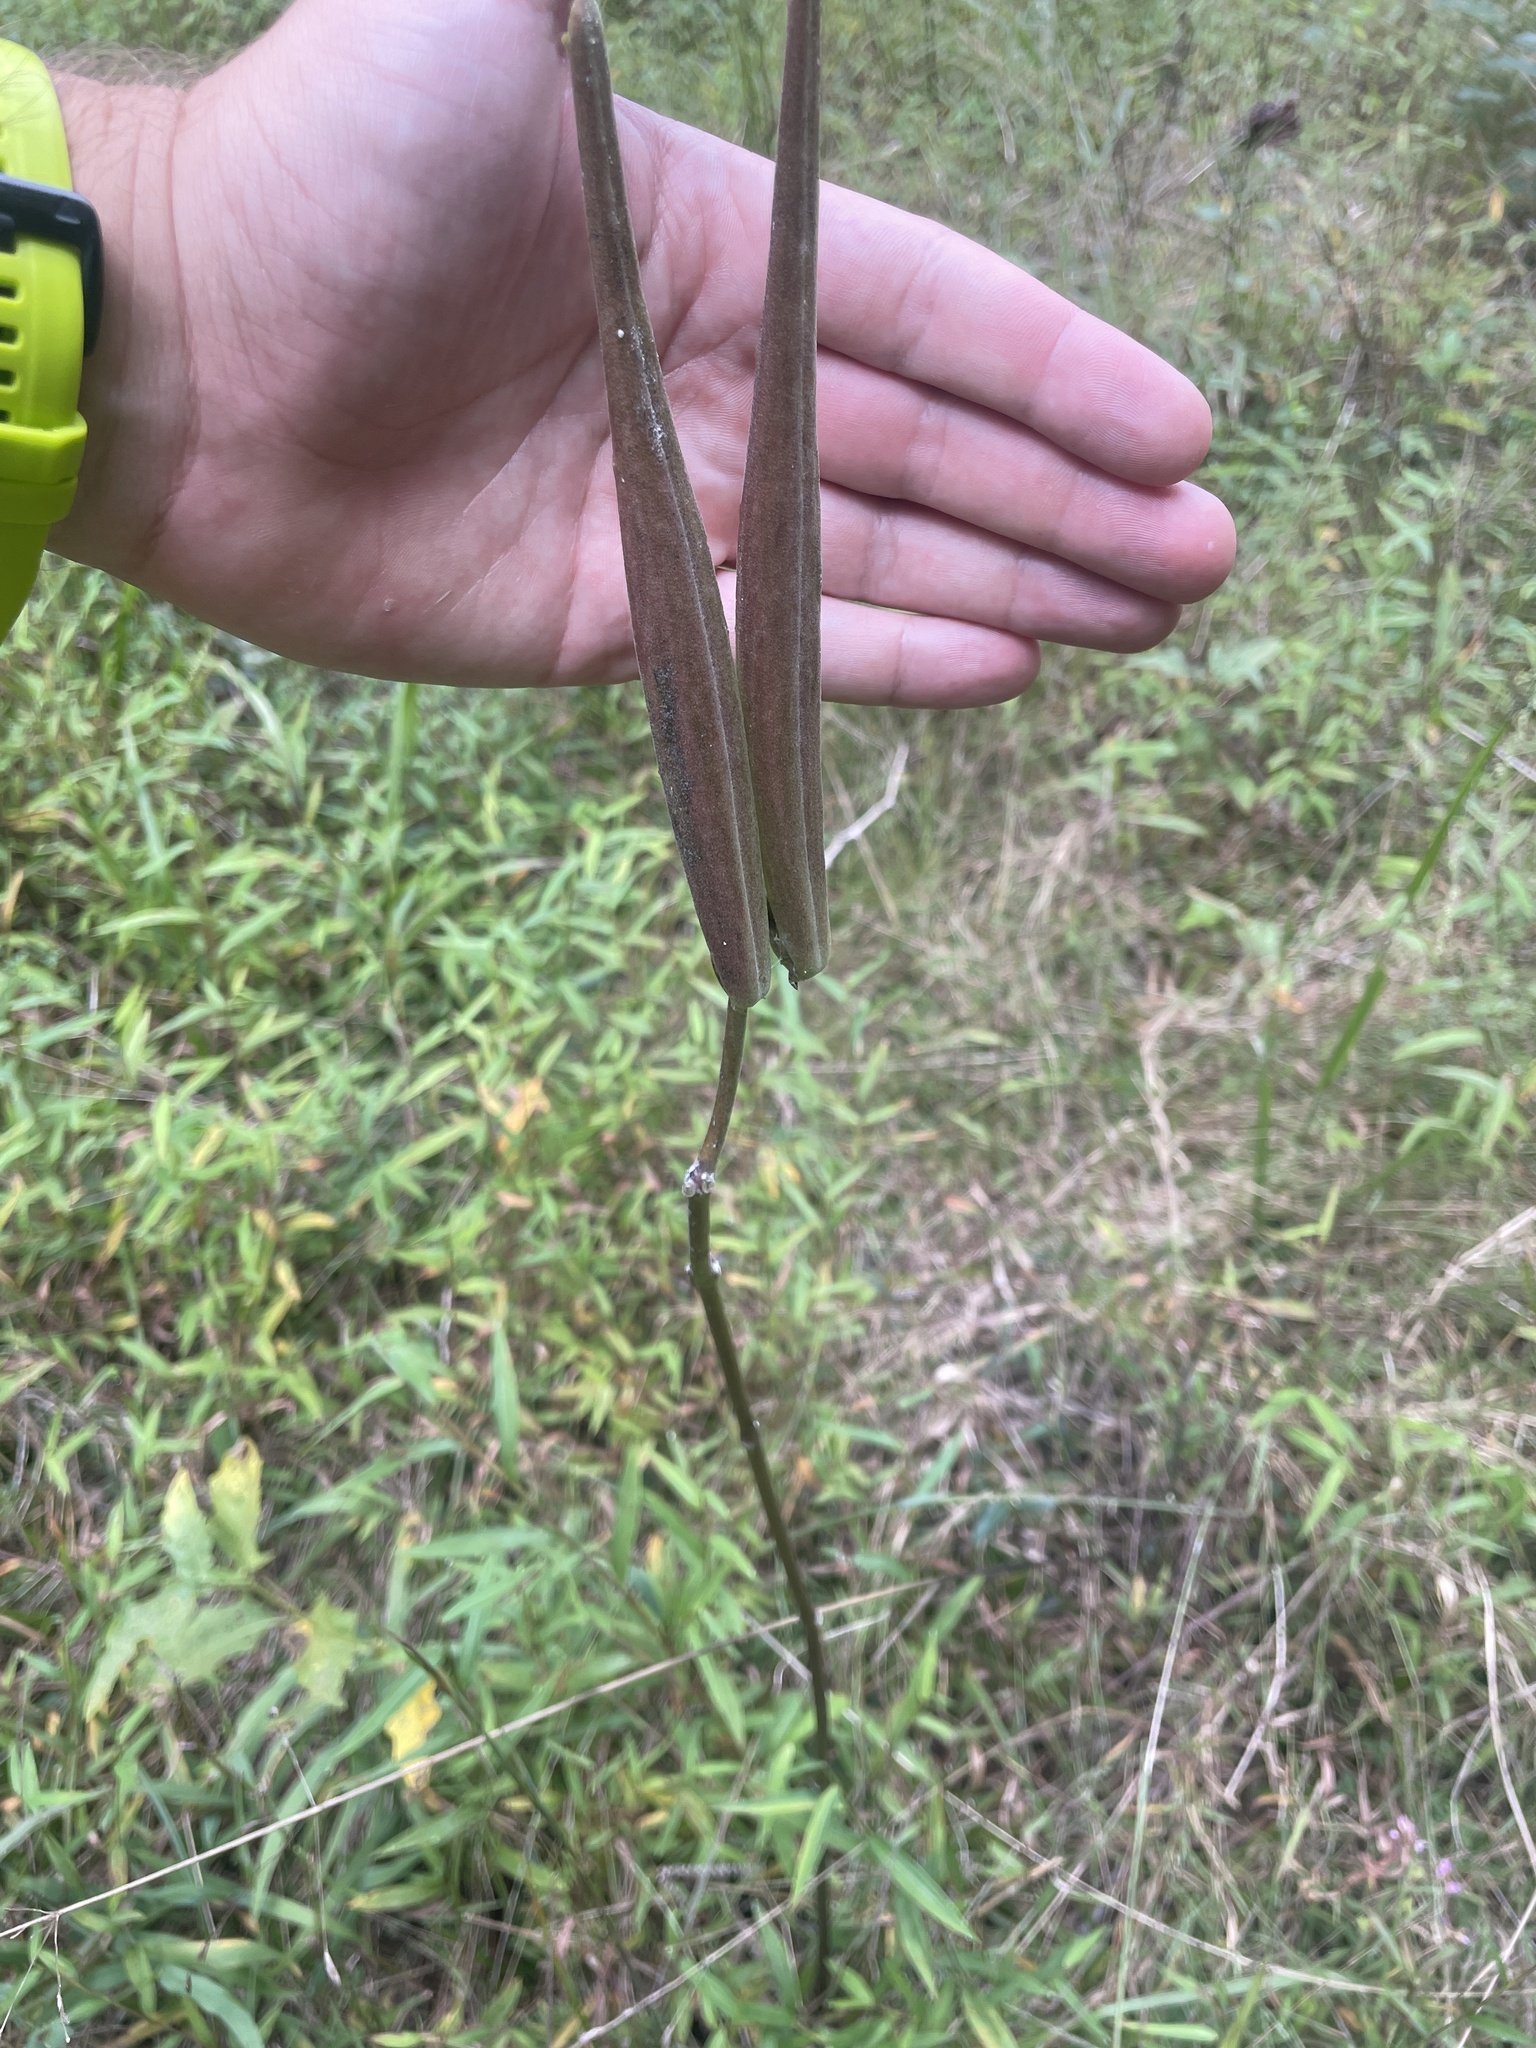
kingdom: Plantae
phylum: Tracheophyta
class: Magnoliopsida
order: Gentianales
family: Apocynaceae
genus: Asclepias
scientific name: Asclepias variegata
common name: Variegated milkweed
